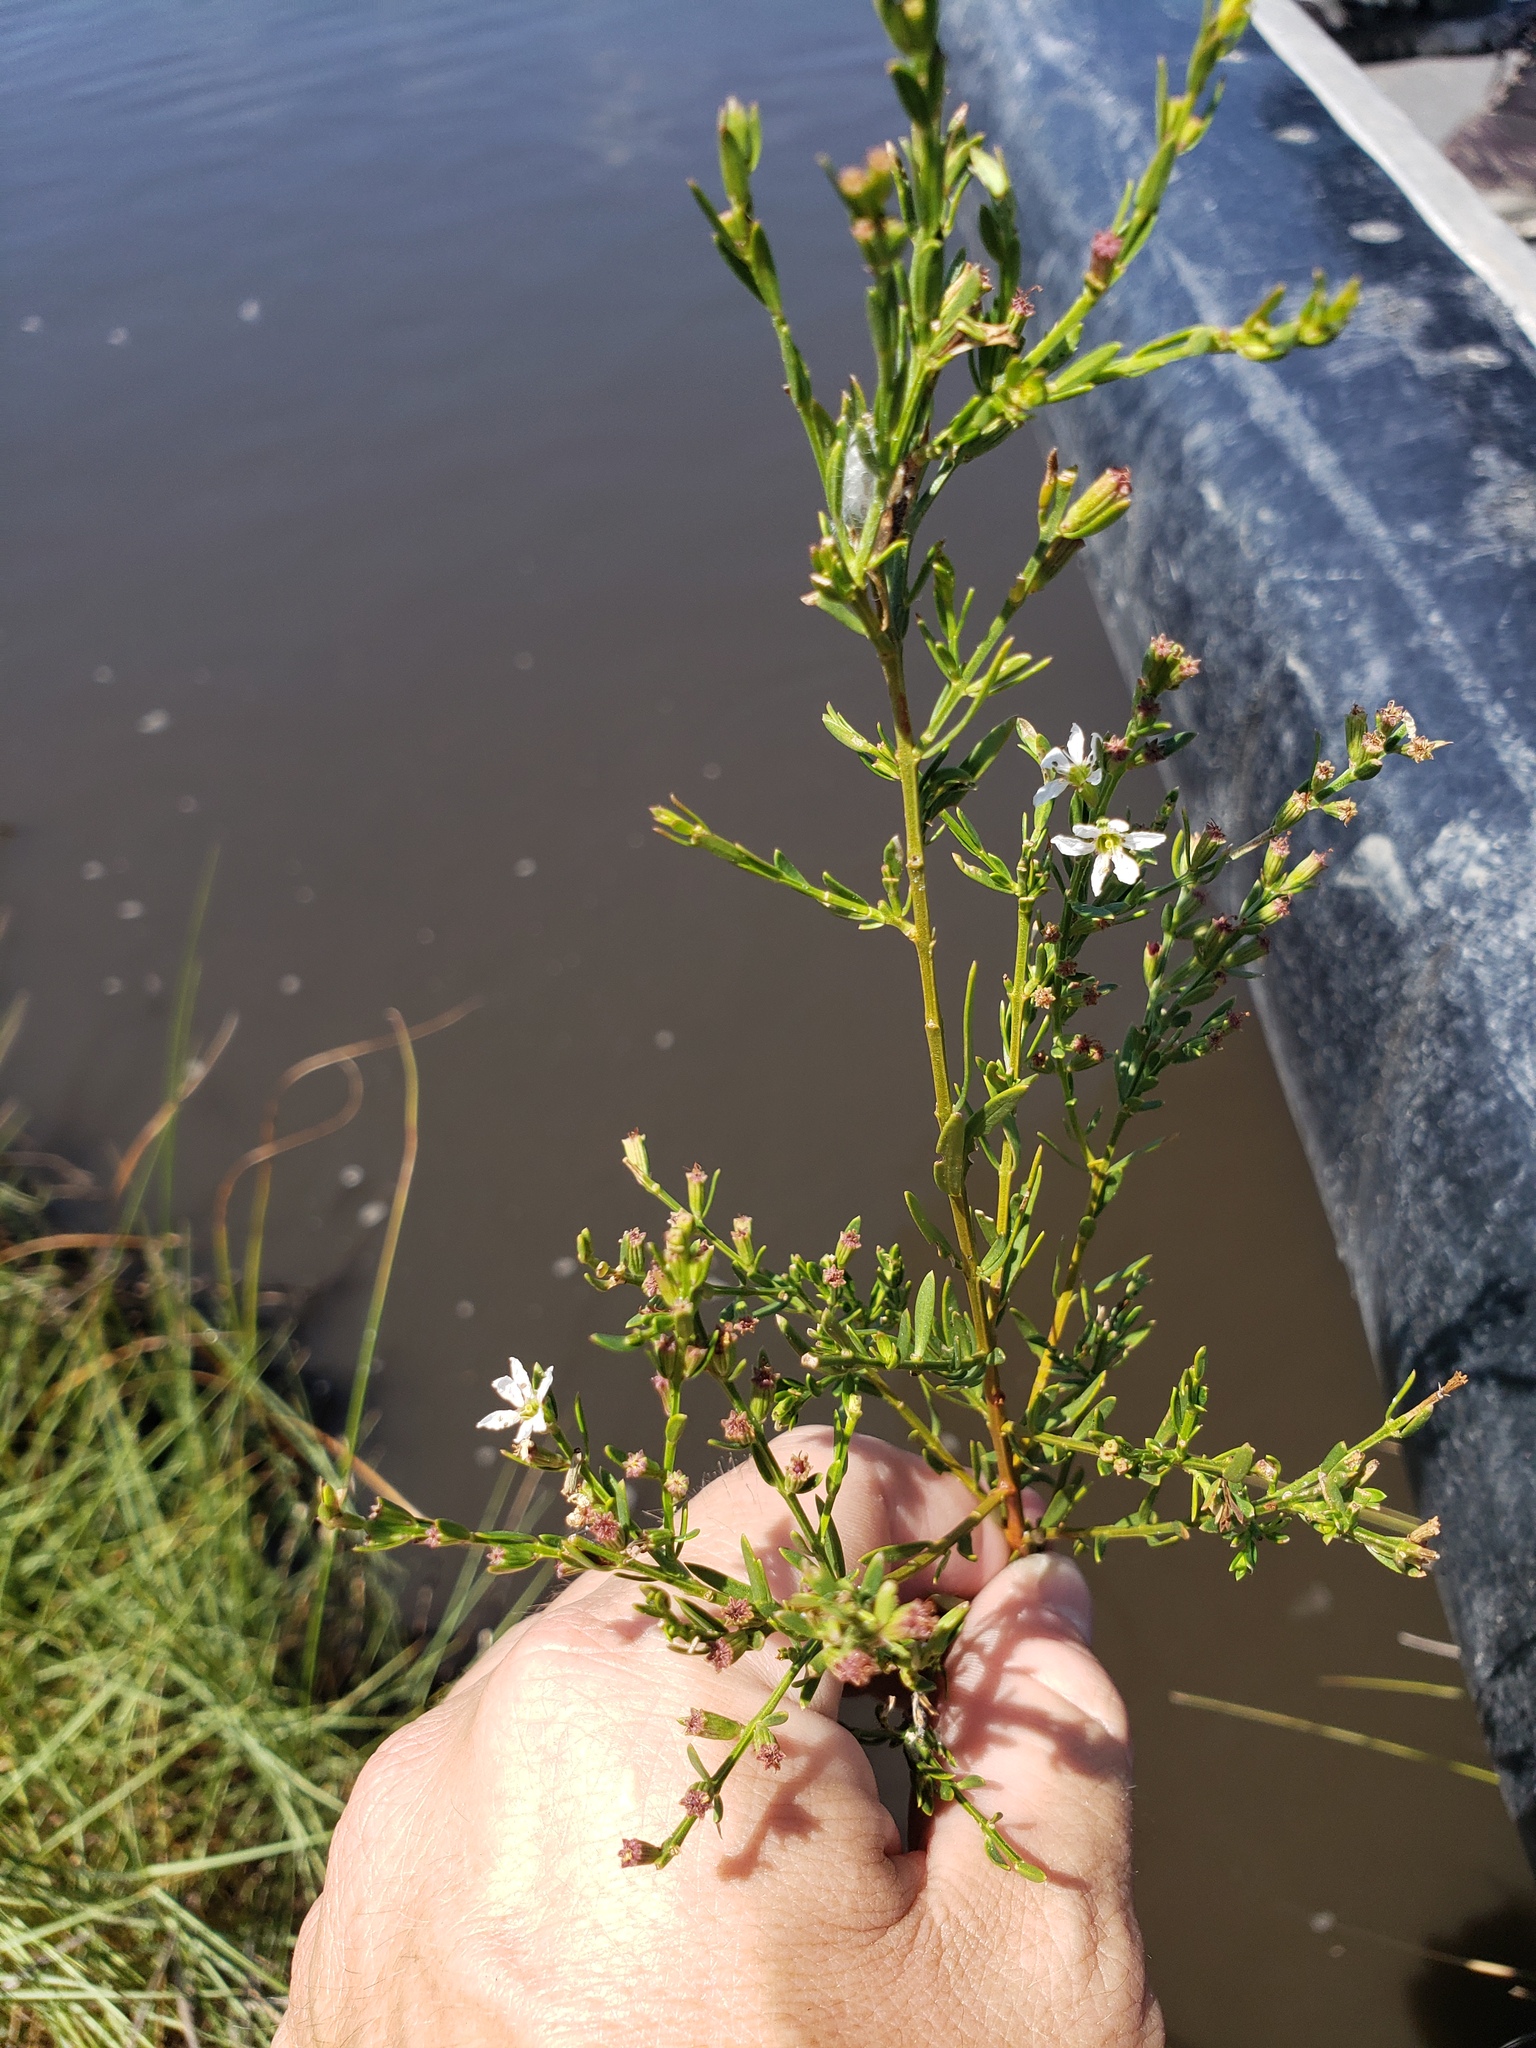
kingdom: Plantae
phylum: Tracheophyta
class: Magnoliopsida
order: Myrtales
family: Lythraceae
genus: Lythrum
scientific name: Lythrum lineare
